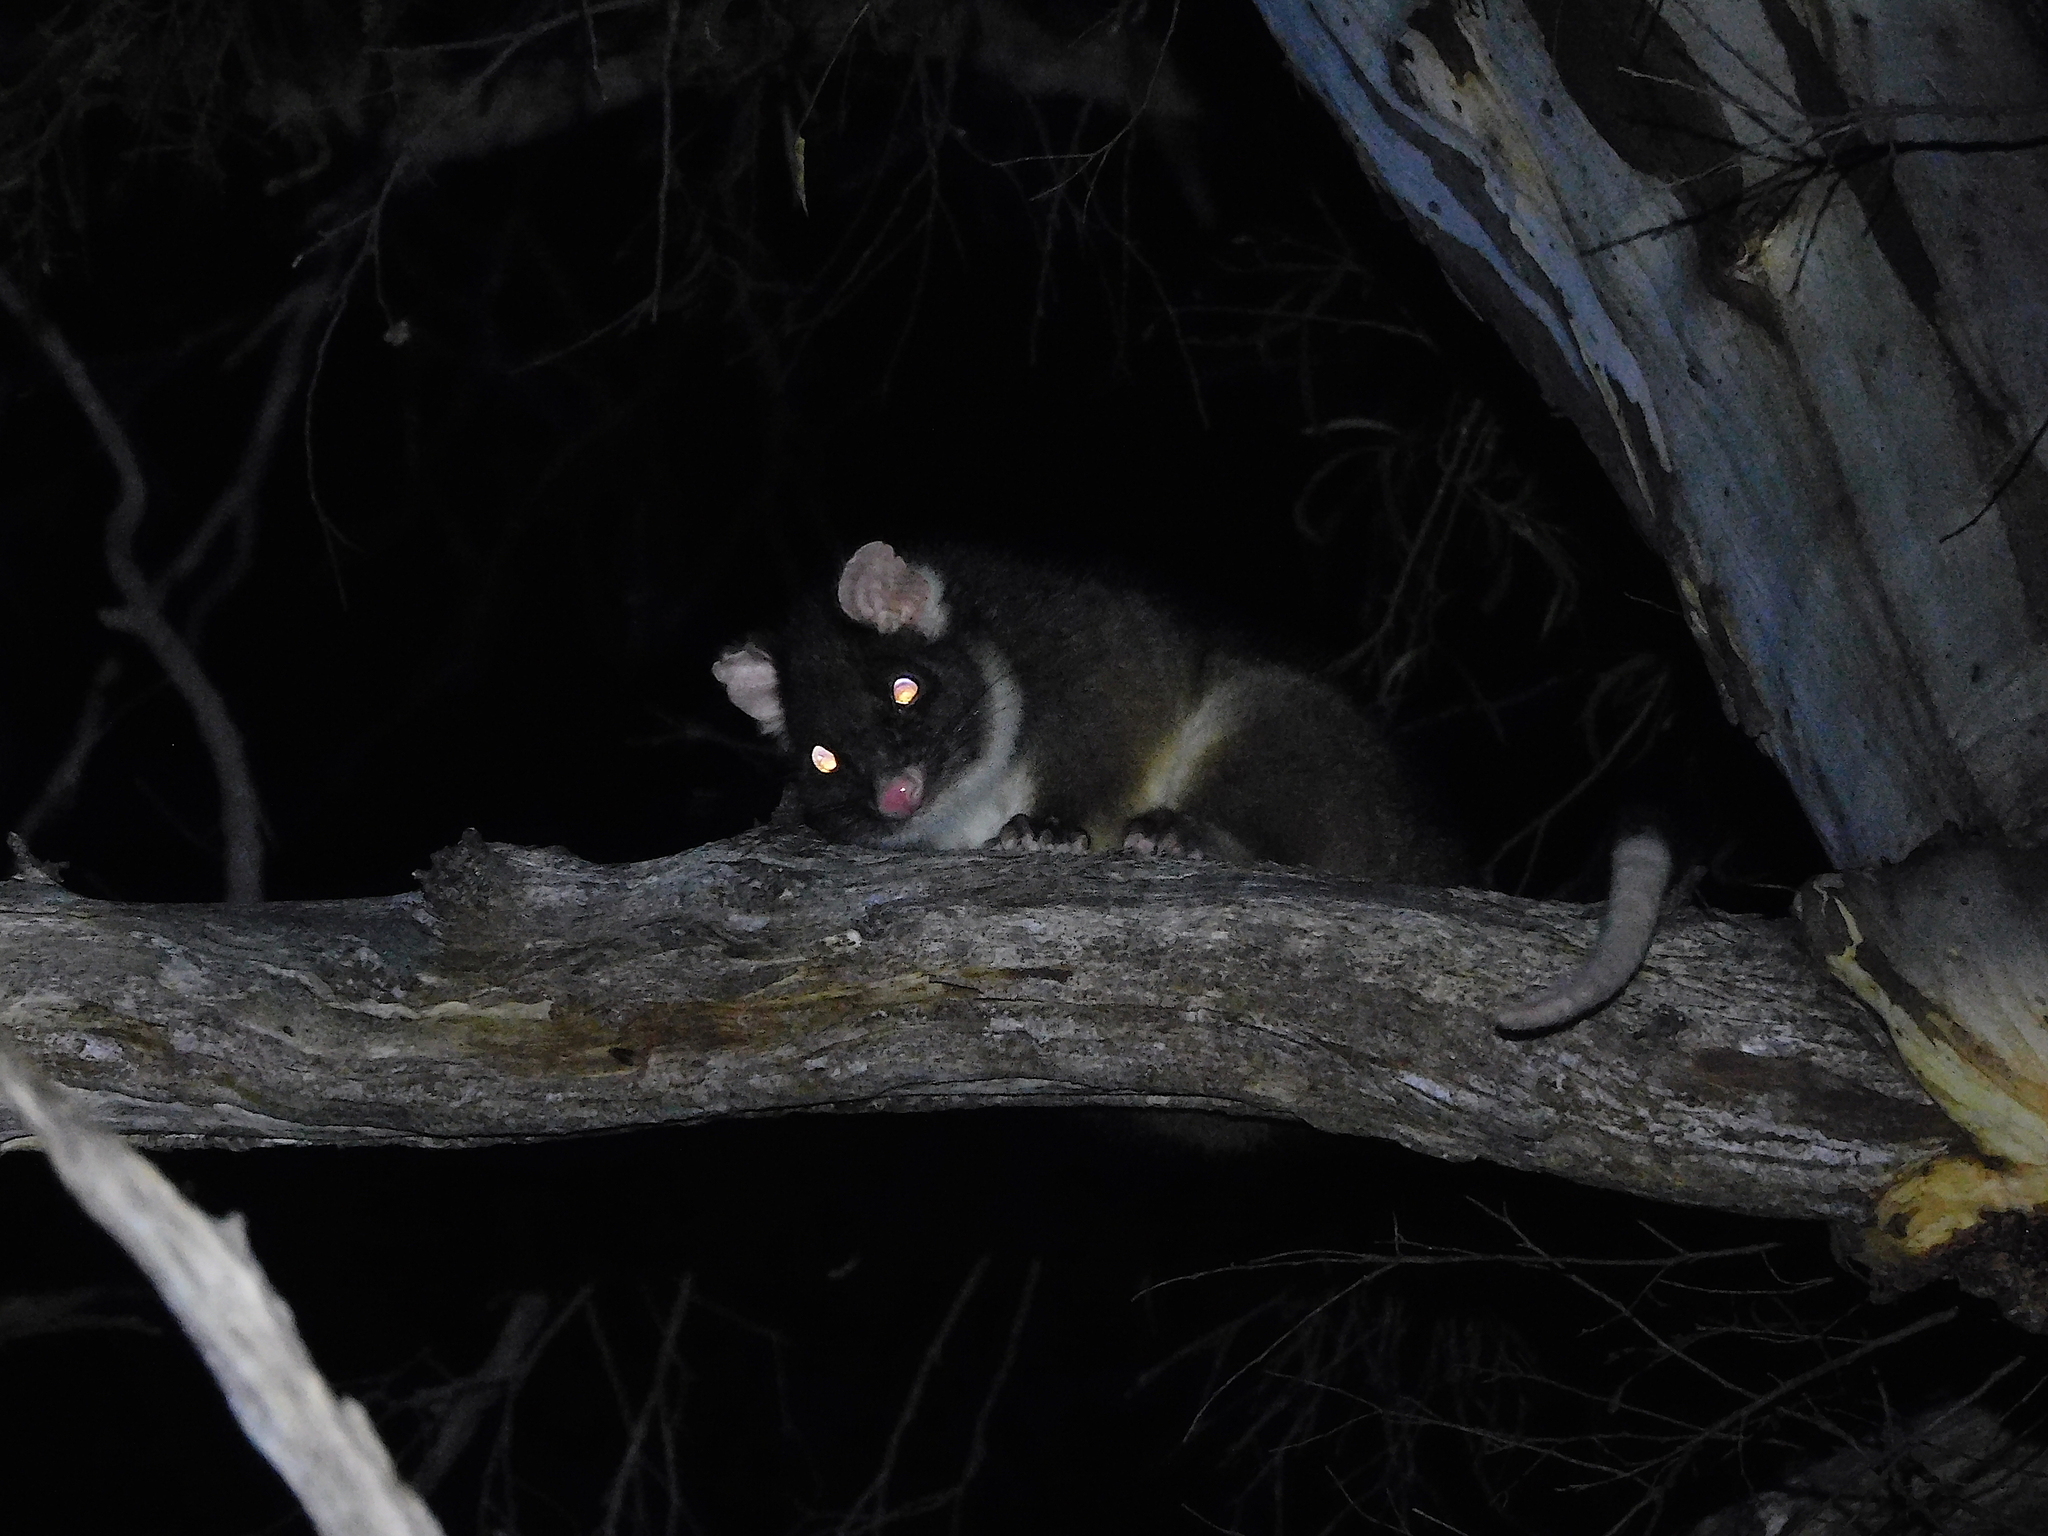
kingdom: Animalia
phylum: Chordata
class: Mammalia
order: Diprotodontia
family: Pseudocheiridae
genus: Pseudocheirus
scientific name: Pseudocheirus peregrinus
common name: Common ringtail possum
